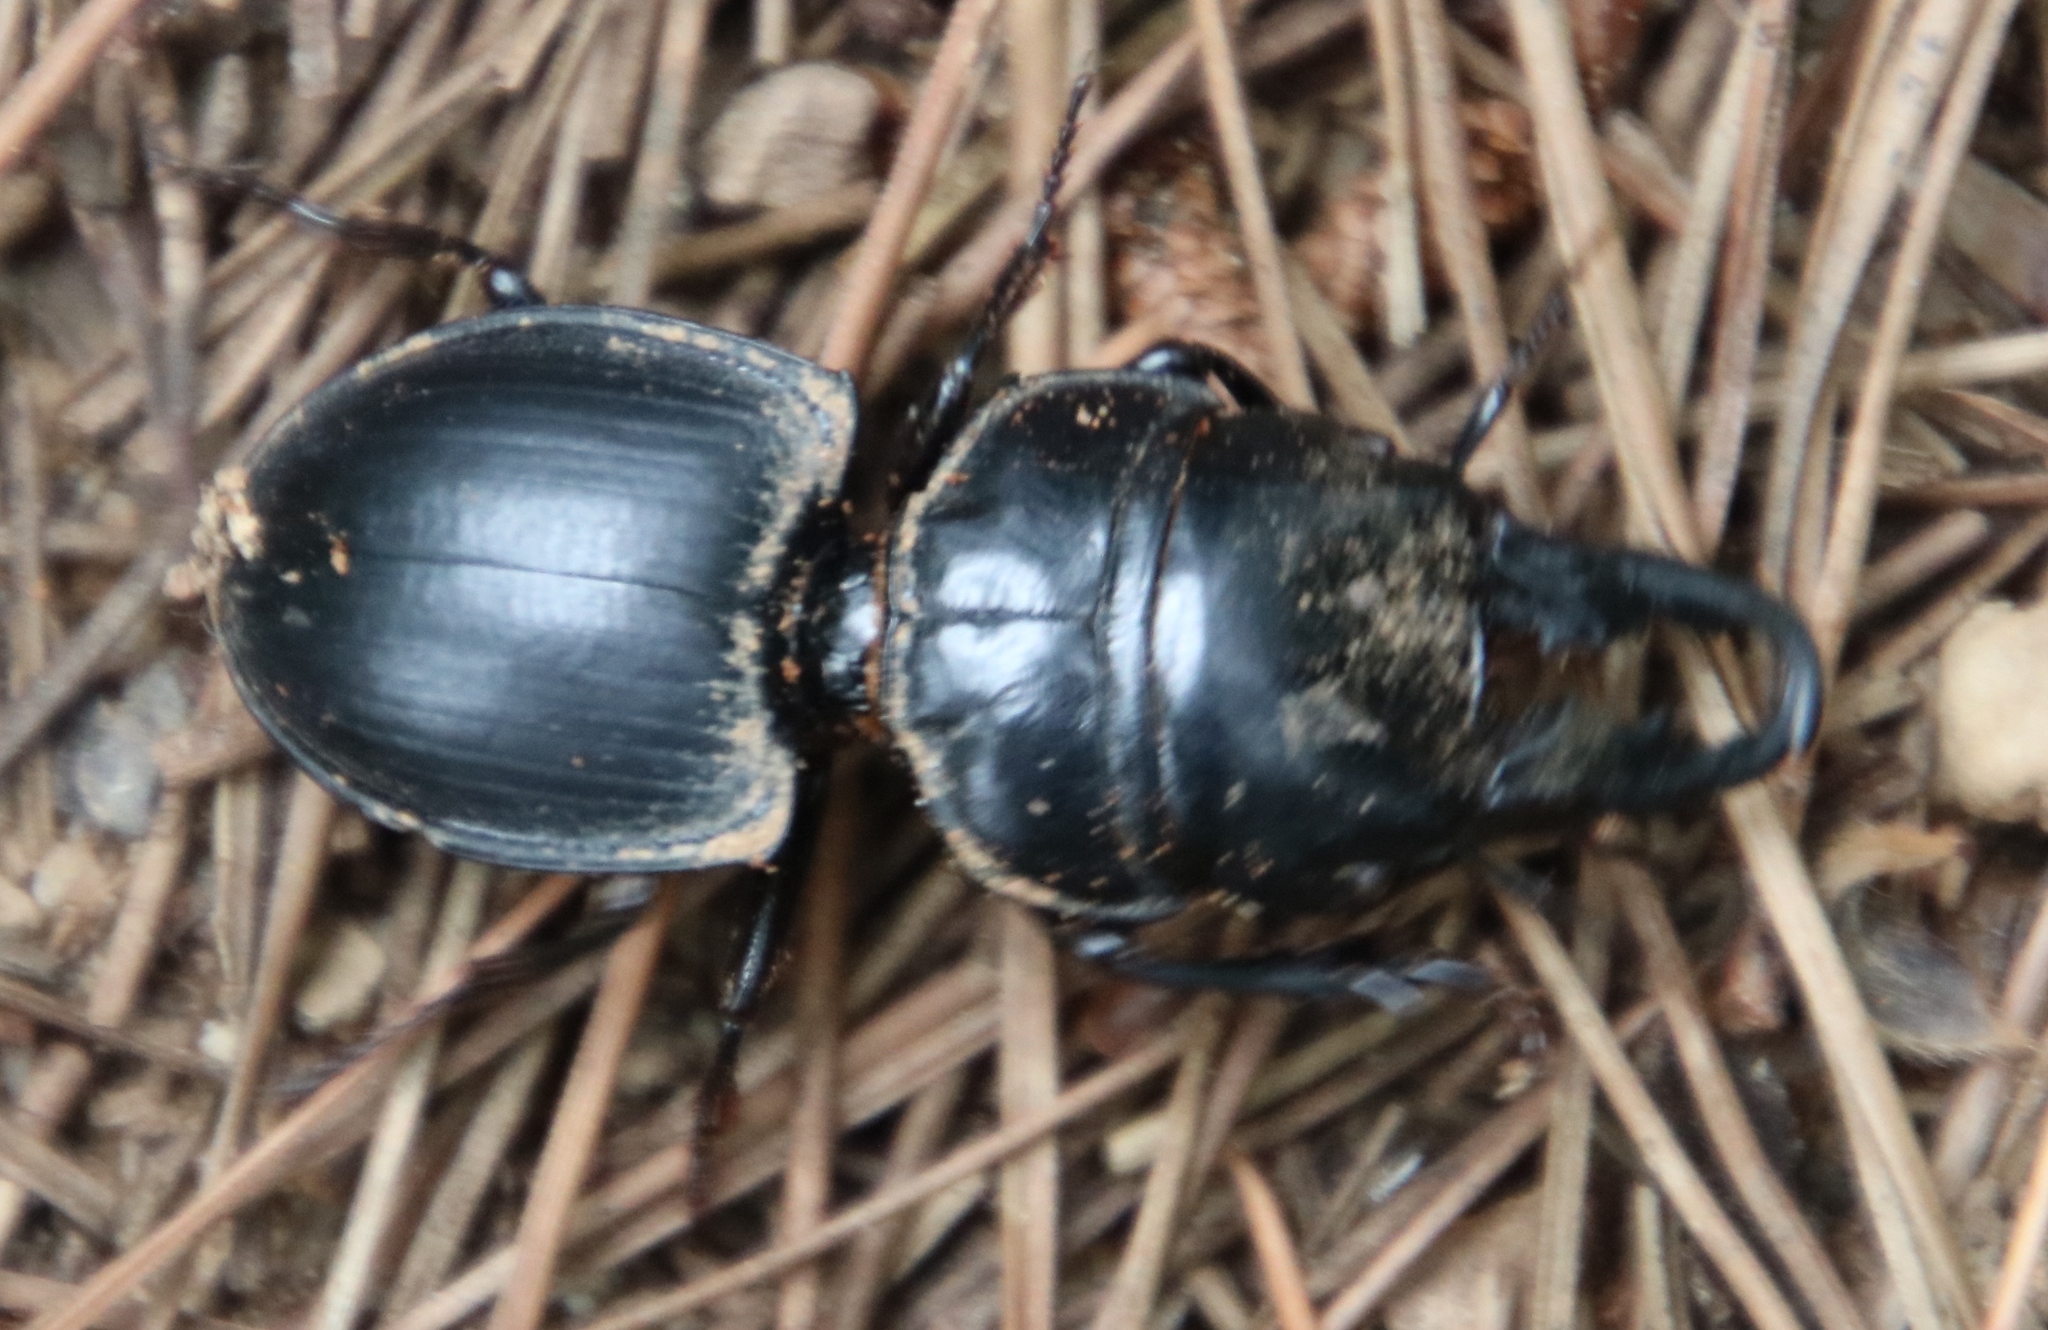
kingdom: Animalia
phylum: Arthropoda
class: Insecta
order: Coleoptera
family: Carabidae
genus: Pachyodontus
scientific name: Pachyodontus languidus
